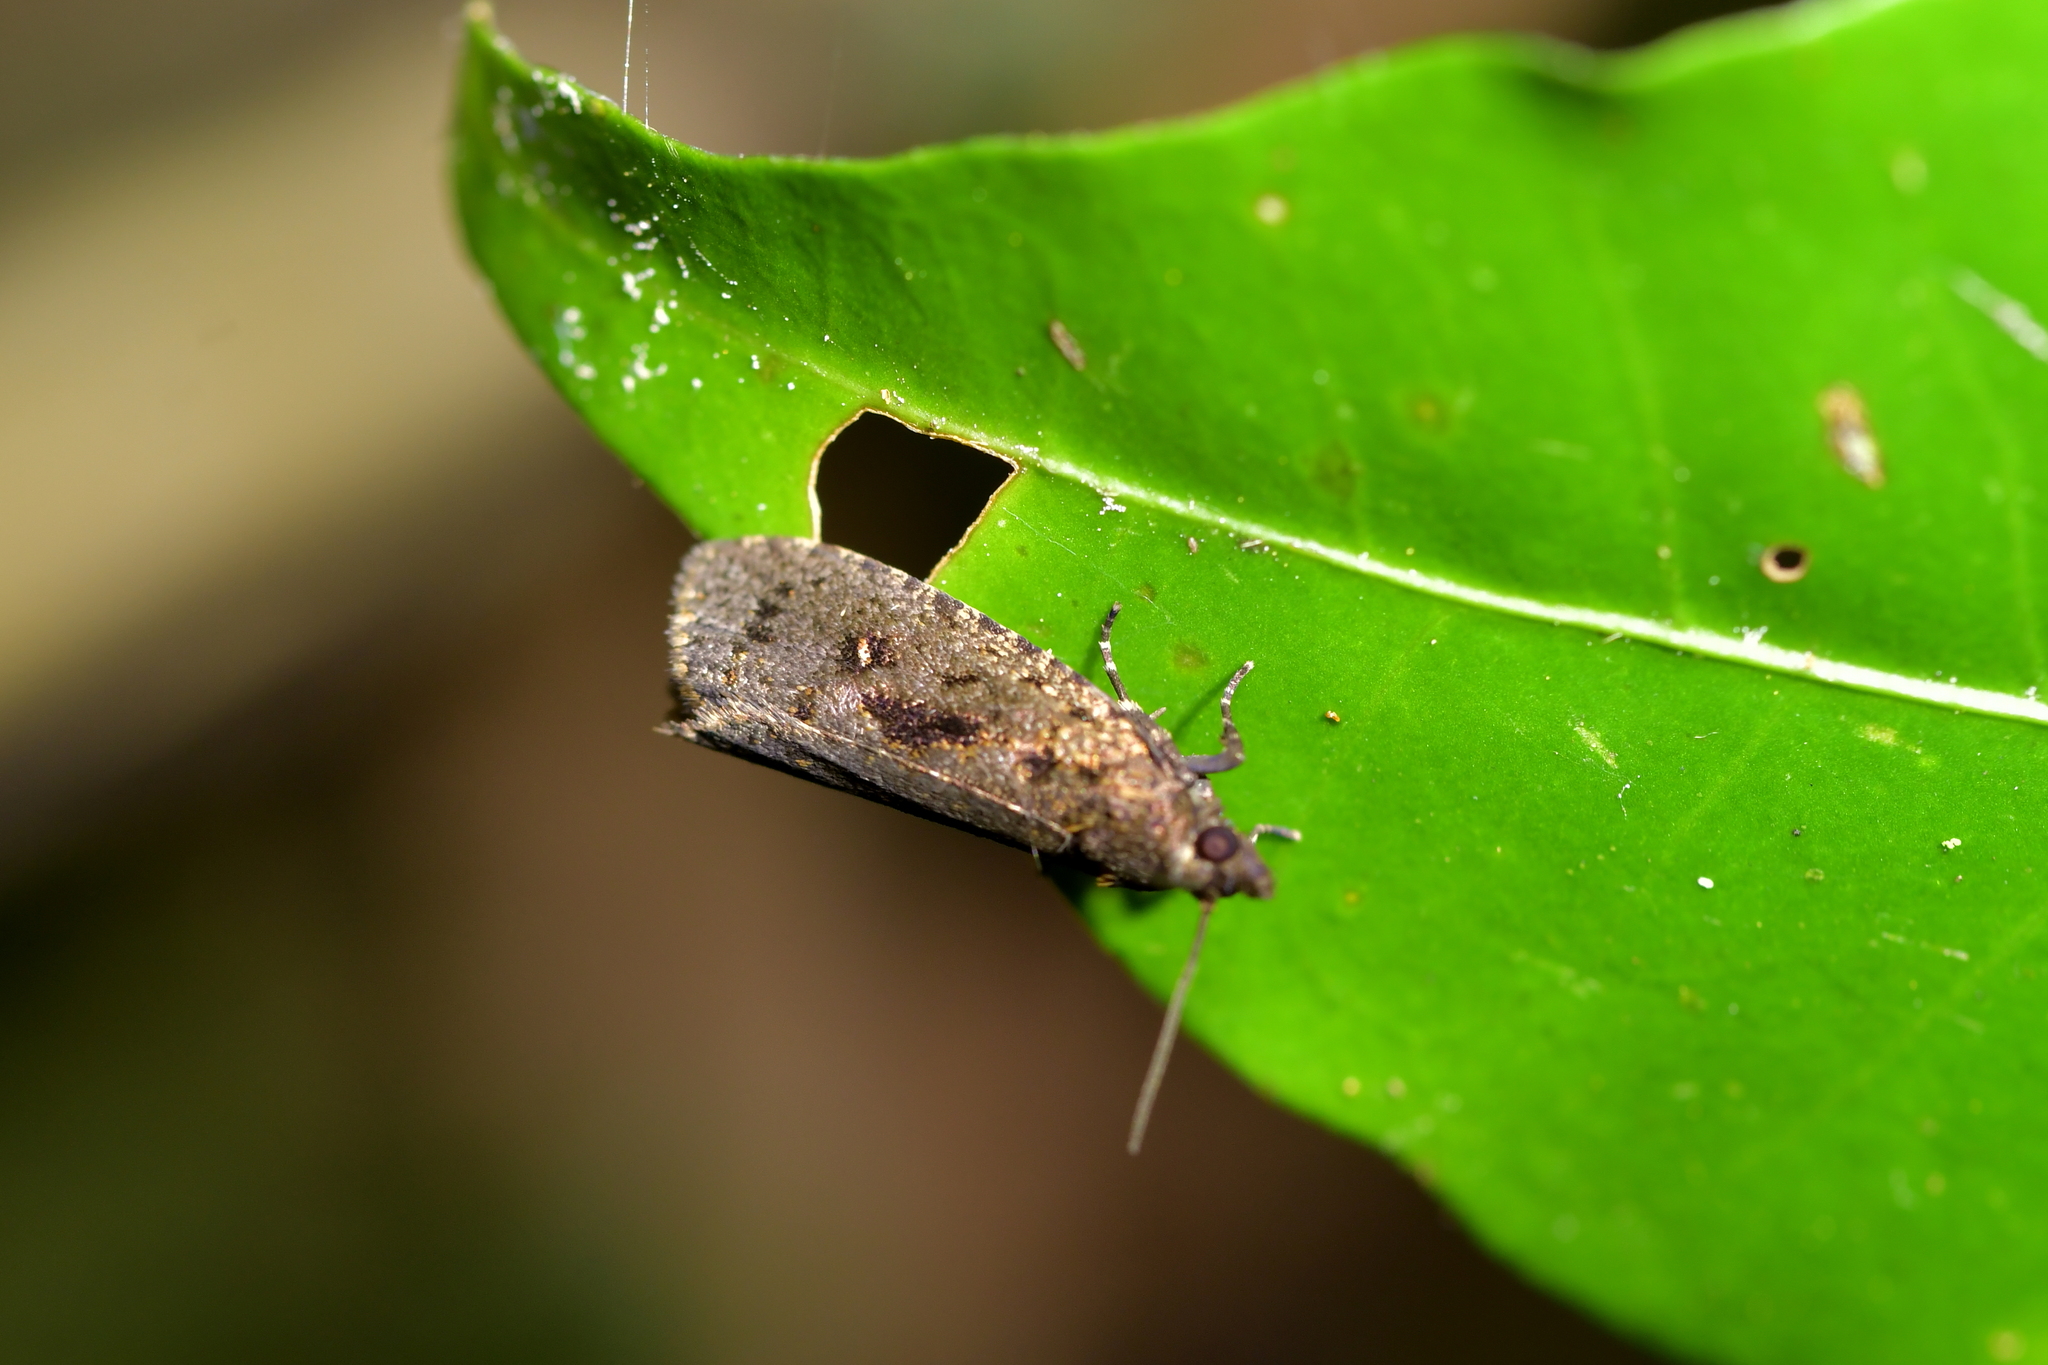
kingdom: Animalia
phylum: Arthropoda
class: Insecta
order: Lepidoptera
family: Tortricidae
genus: Cryptaspasma
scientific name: Cryptaspasma querula
